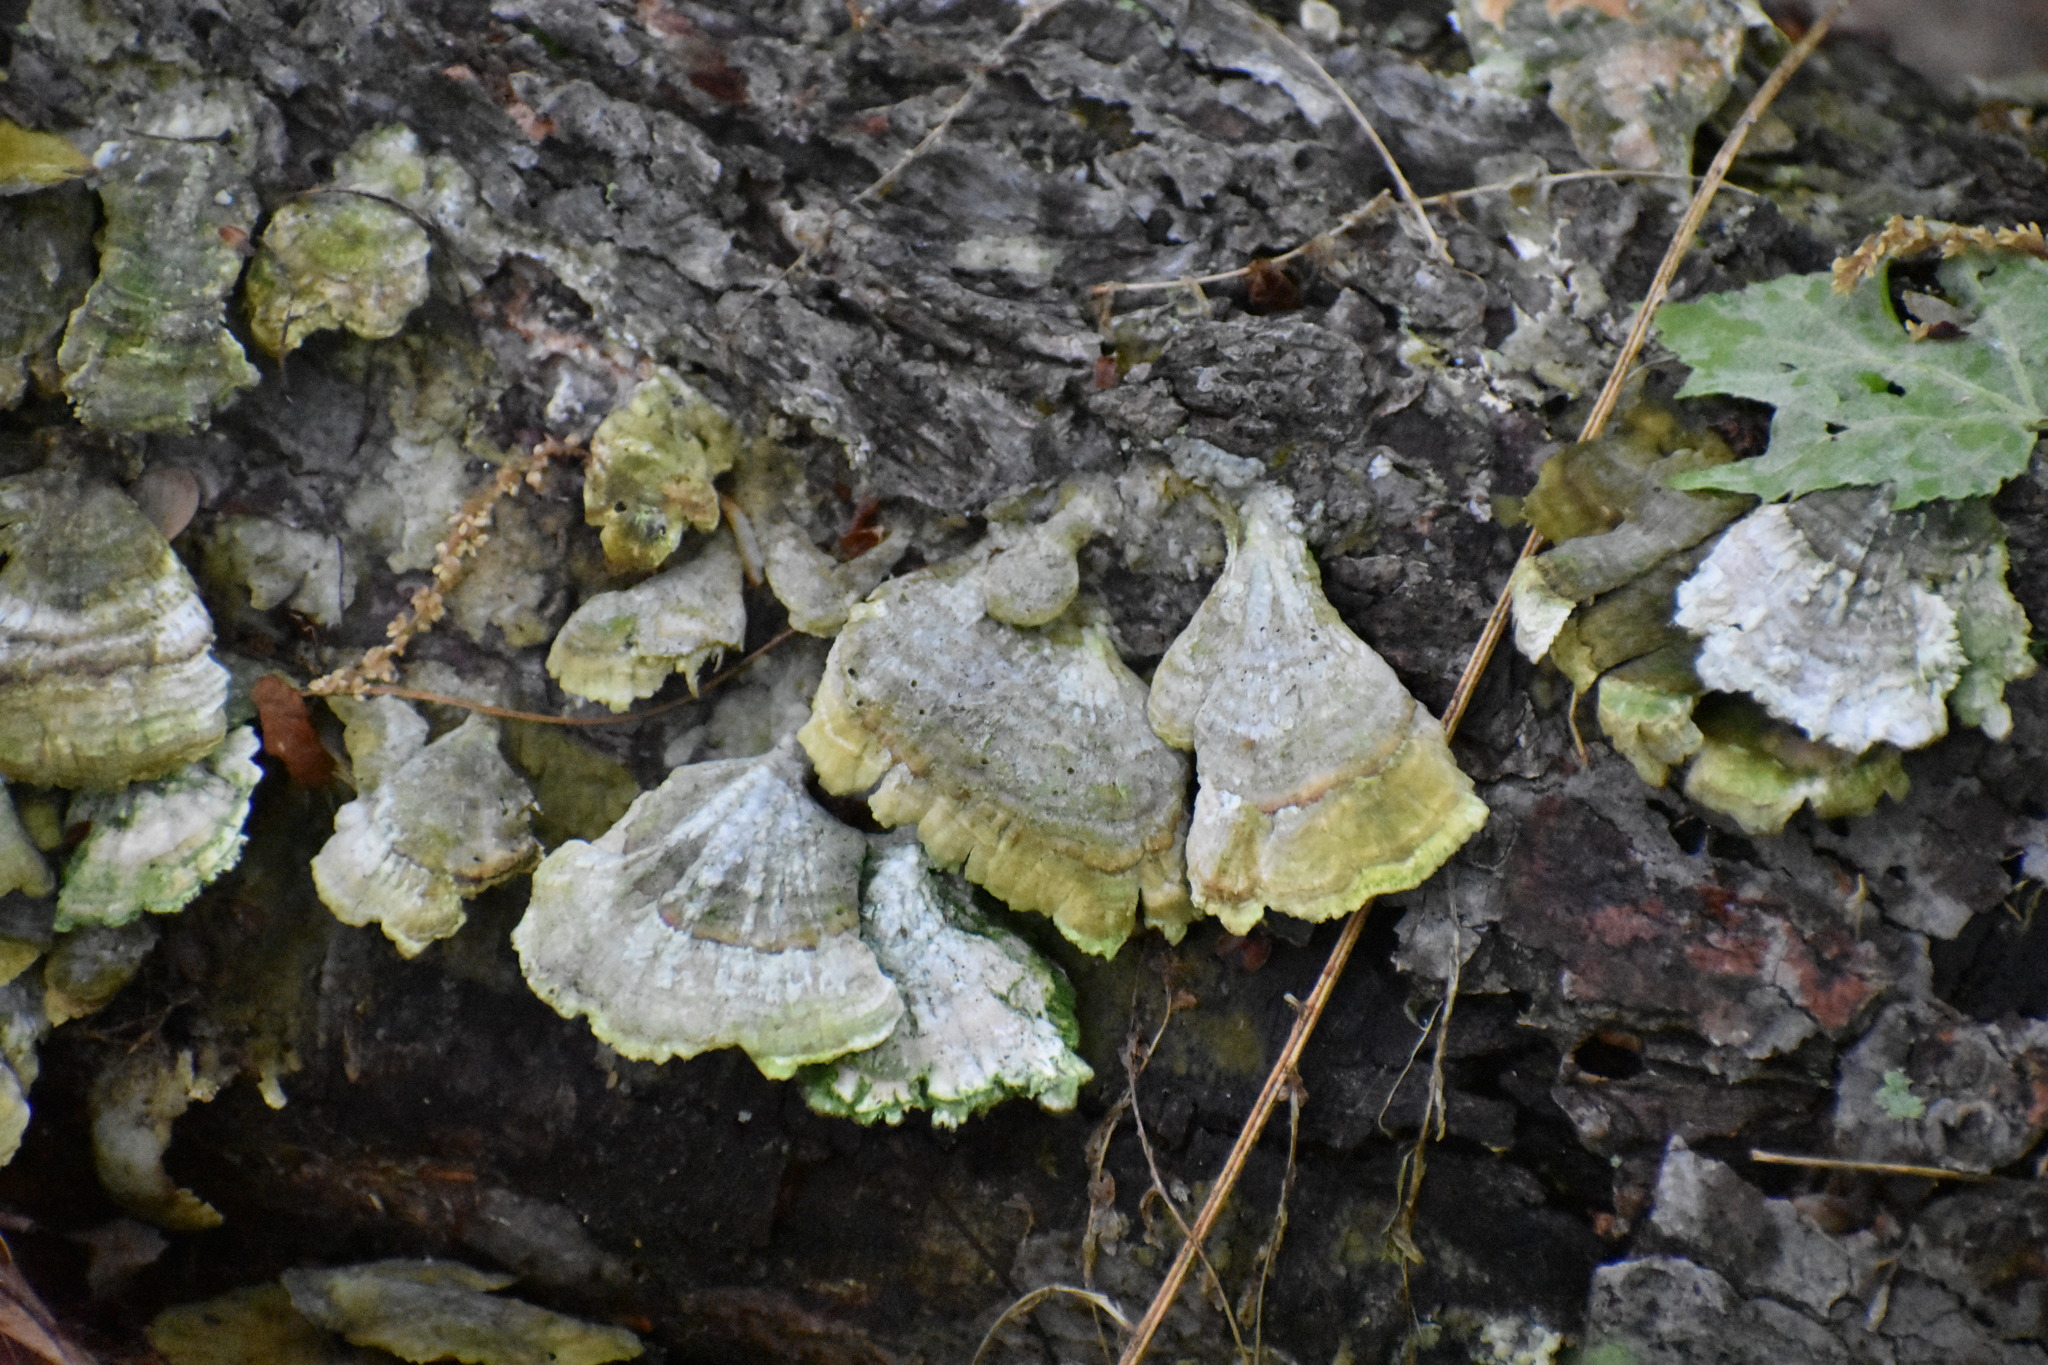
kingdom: Fungi
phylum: Basidiomycota
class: Agaricomycetes
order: Hymenochaetales
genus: Trichaptum
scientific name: Trichaptum biforme
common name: Violet-toothed polypore
